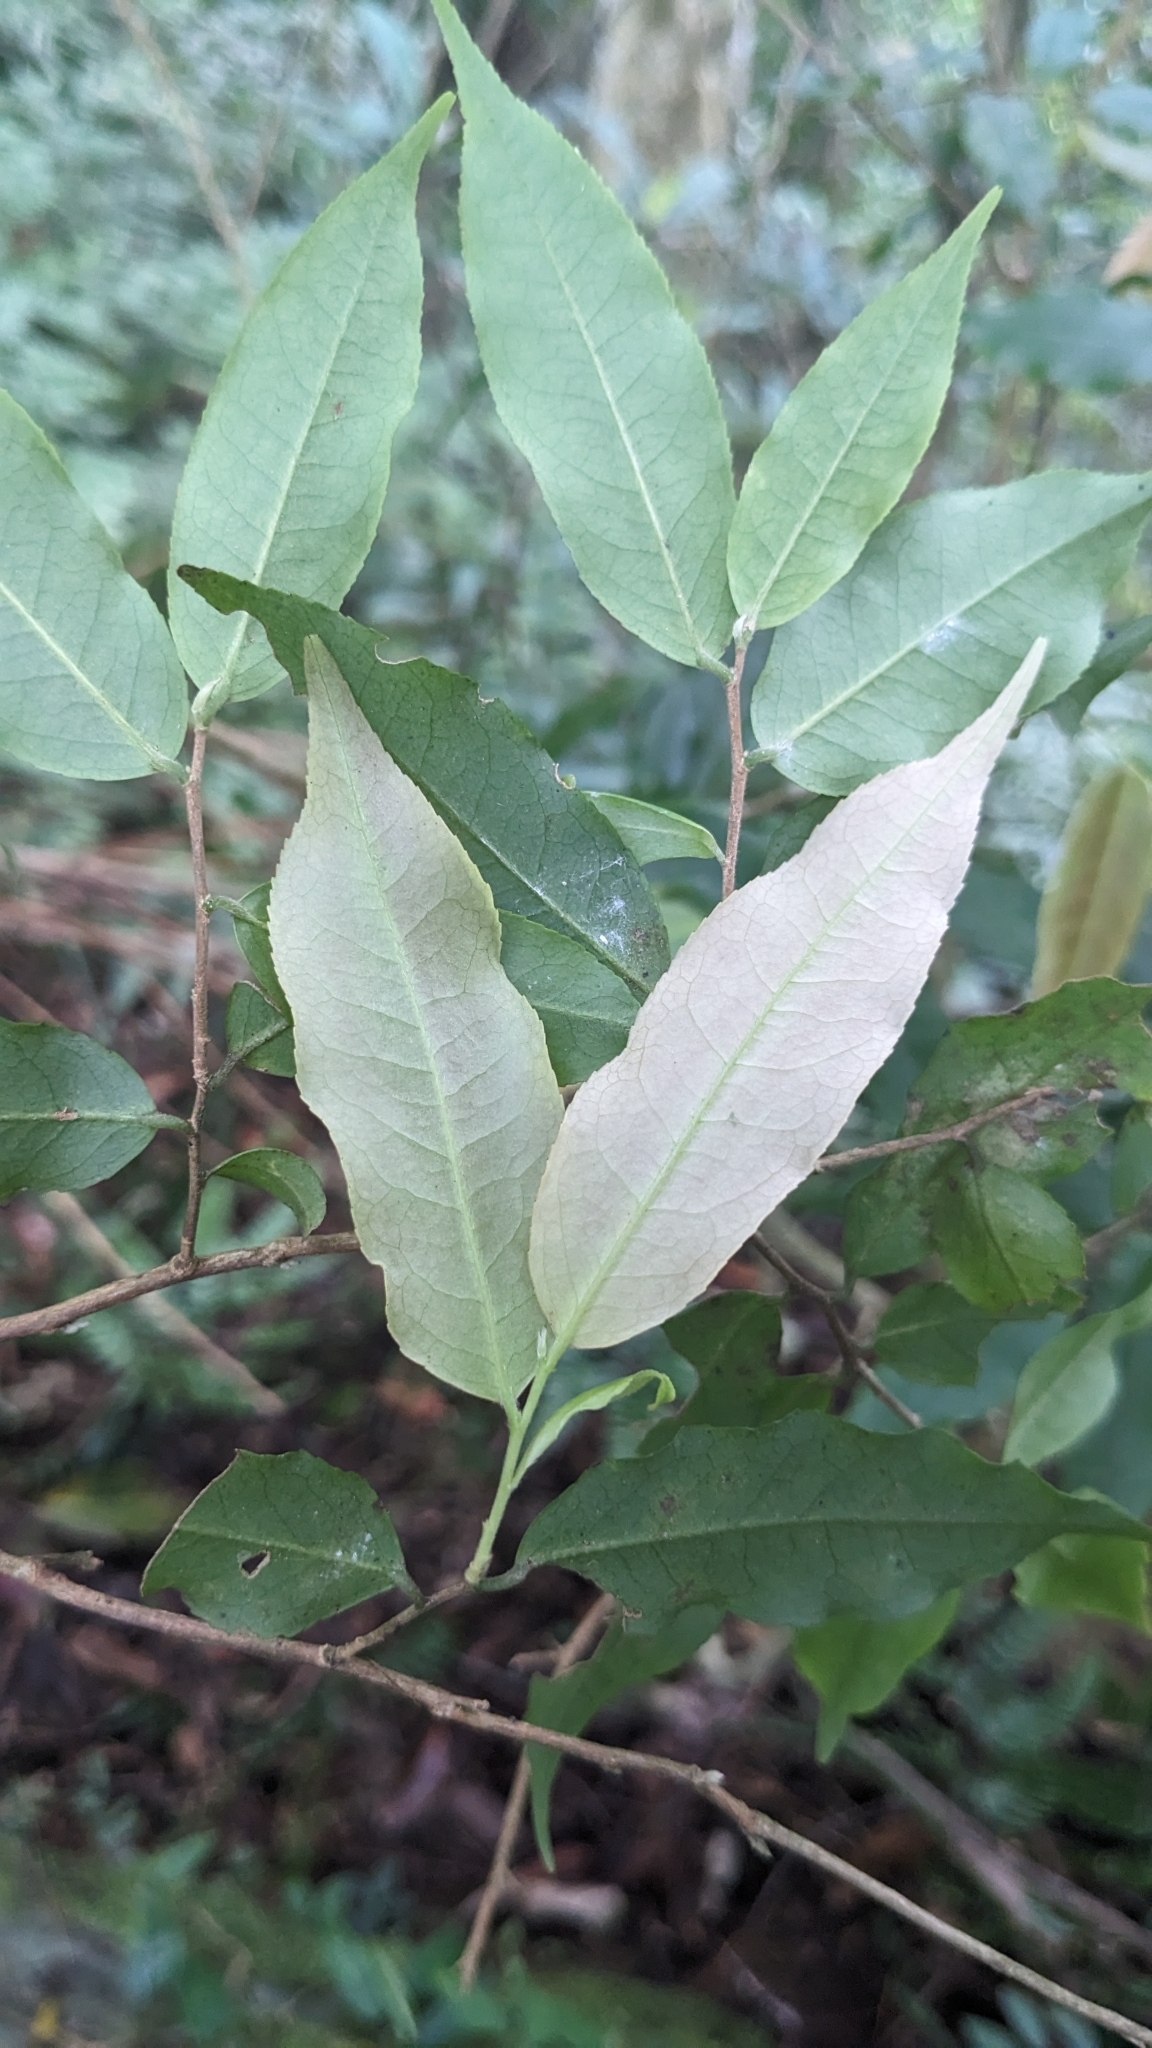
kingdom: Plantae
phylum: Tracheophyta
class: Magnoliopsida
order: Ericales
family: Theaceae
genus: Camellia
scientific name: Camellia caudata
